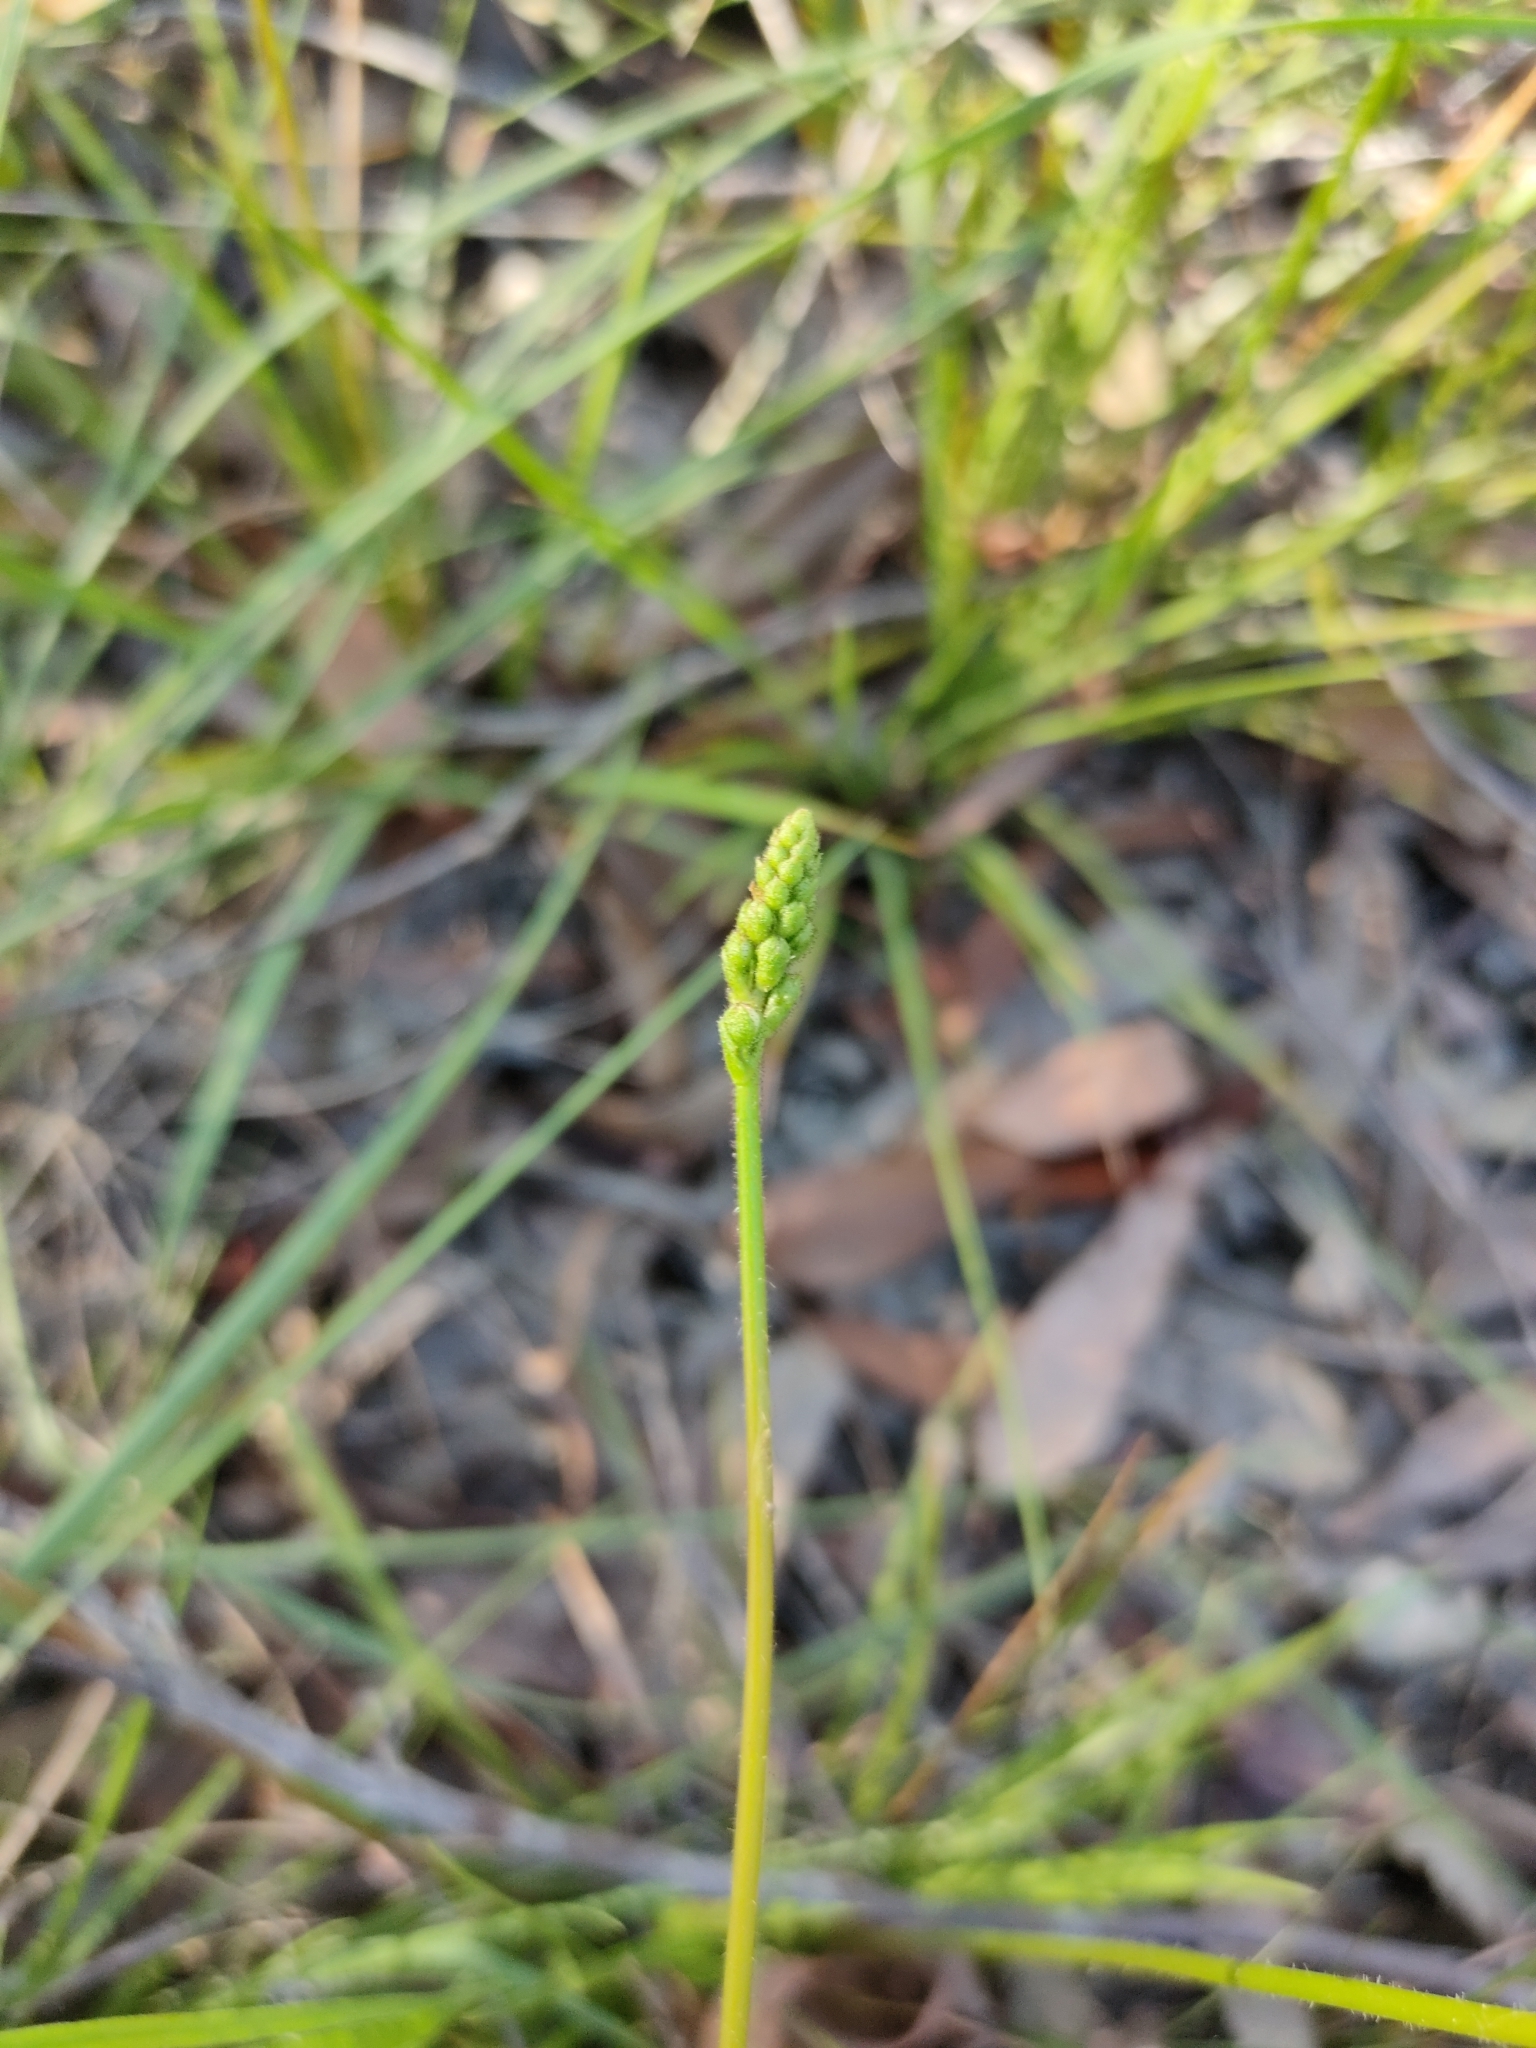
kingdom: Plantae
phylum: Tracheophyta
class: Magnoliopsida
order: Asterales
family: Stylidiaceae
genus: Stylidium
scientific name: Stylidium graminifolium
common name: Grass triggerplant
